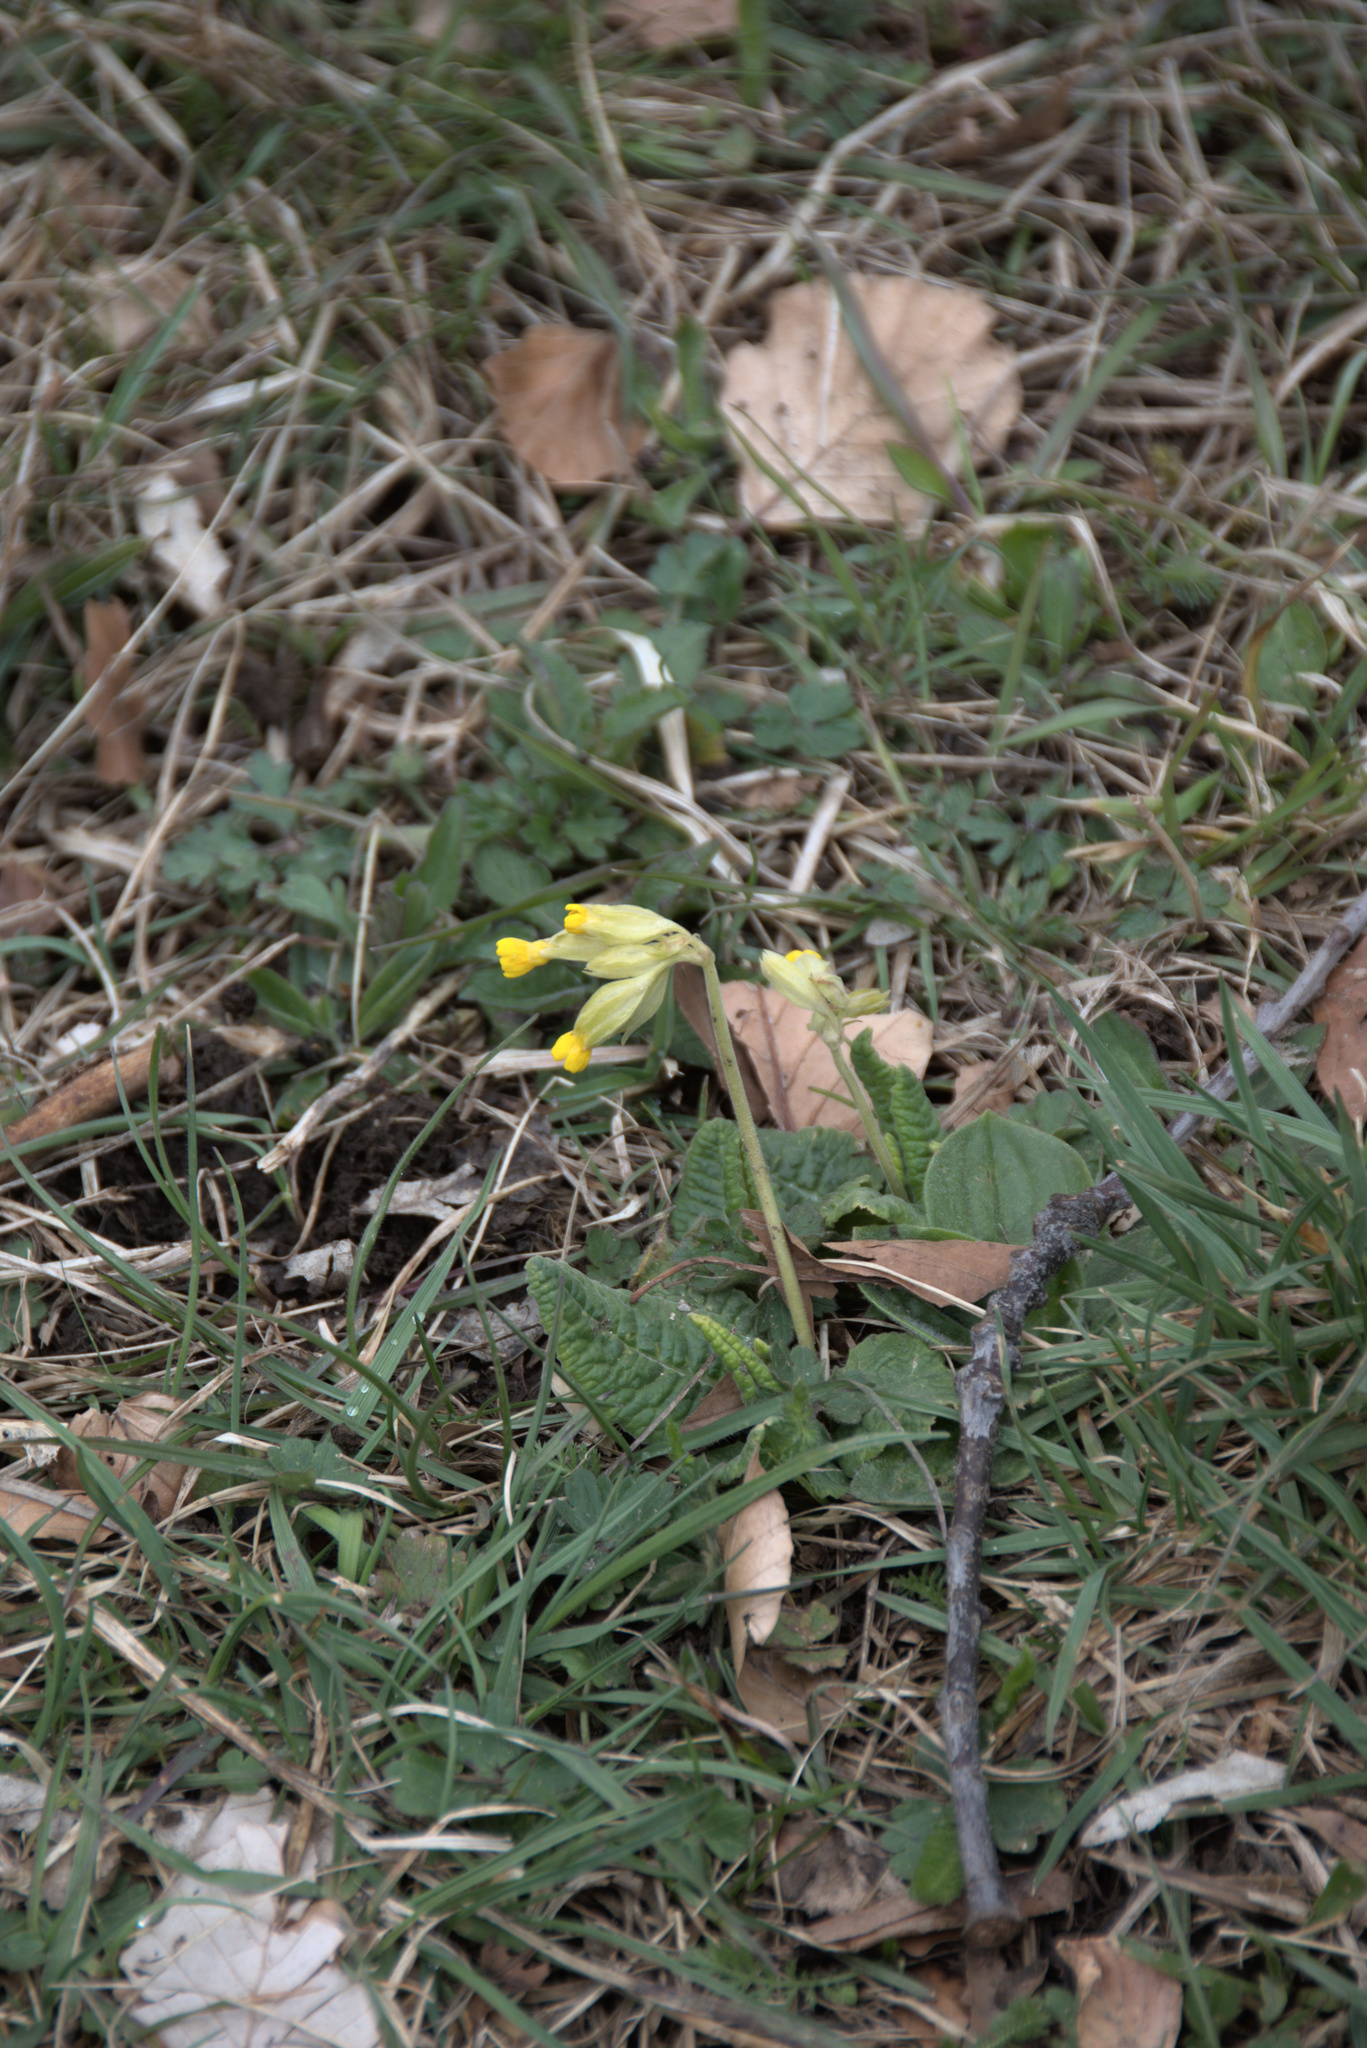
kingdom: Plantae
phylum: Tracheophyta
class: Magnoliopsida
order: Ericales
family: Primulaceae
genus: Primula
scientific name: Primula veris
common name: Cowslip
